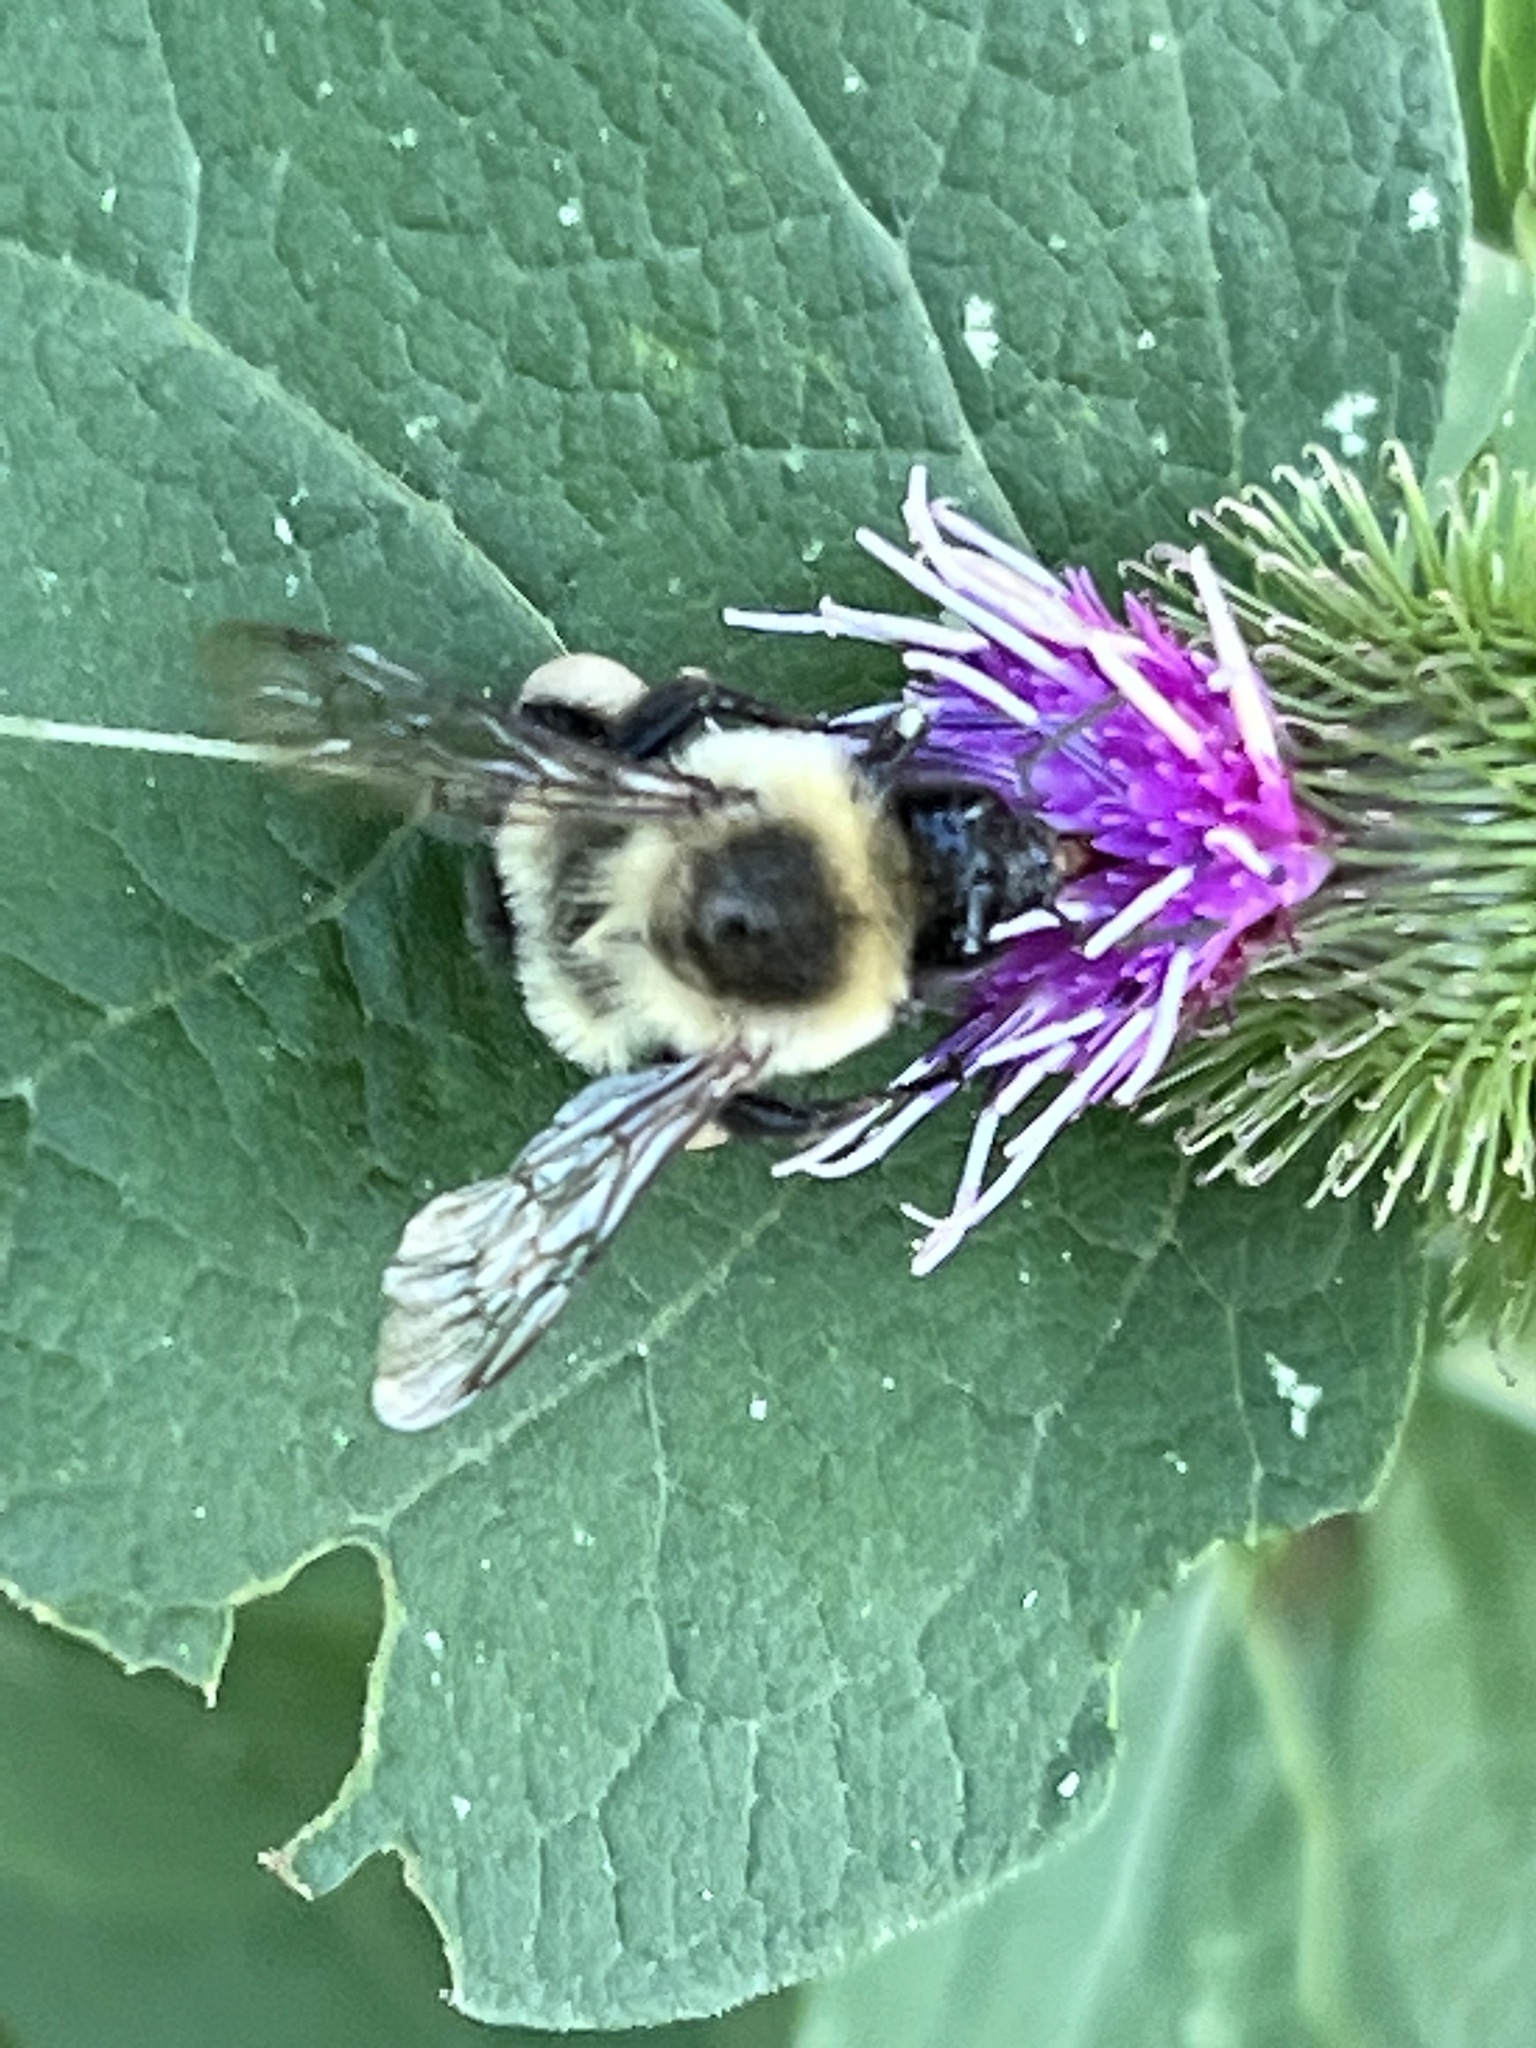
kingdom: Animalia
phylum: Arthropoda
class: Insecta
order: Hymenoptera
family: Apidae
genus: Bombus
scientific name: Bombus impatiens
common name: Common eastern bumble bee
